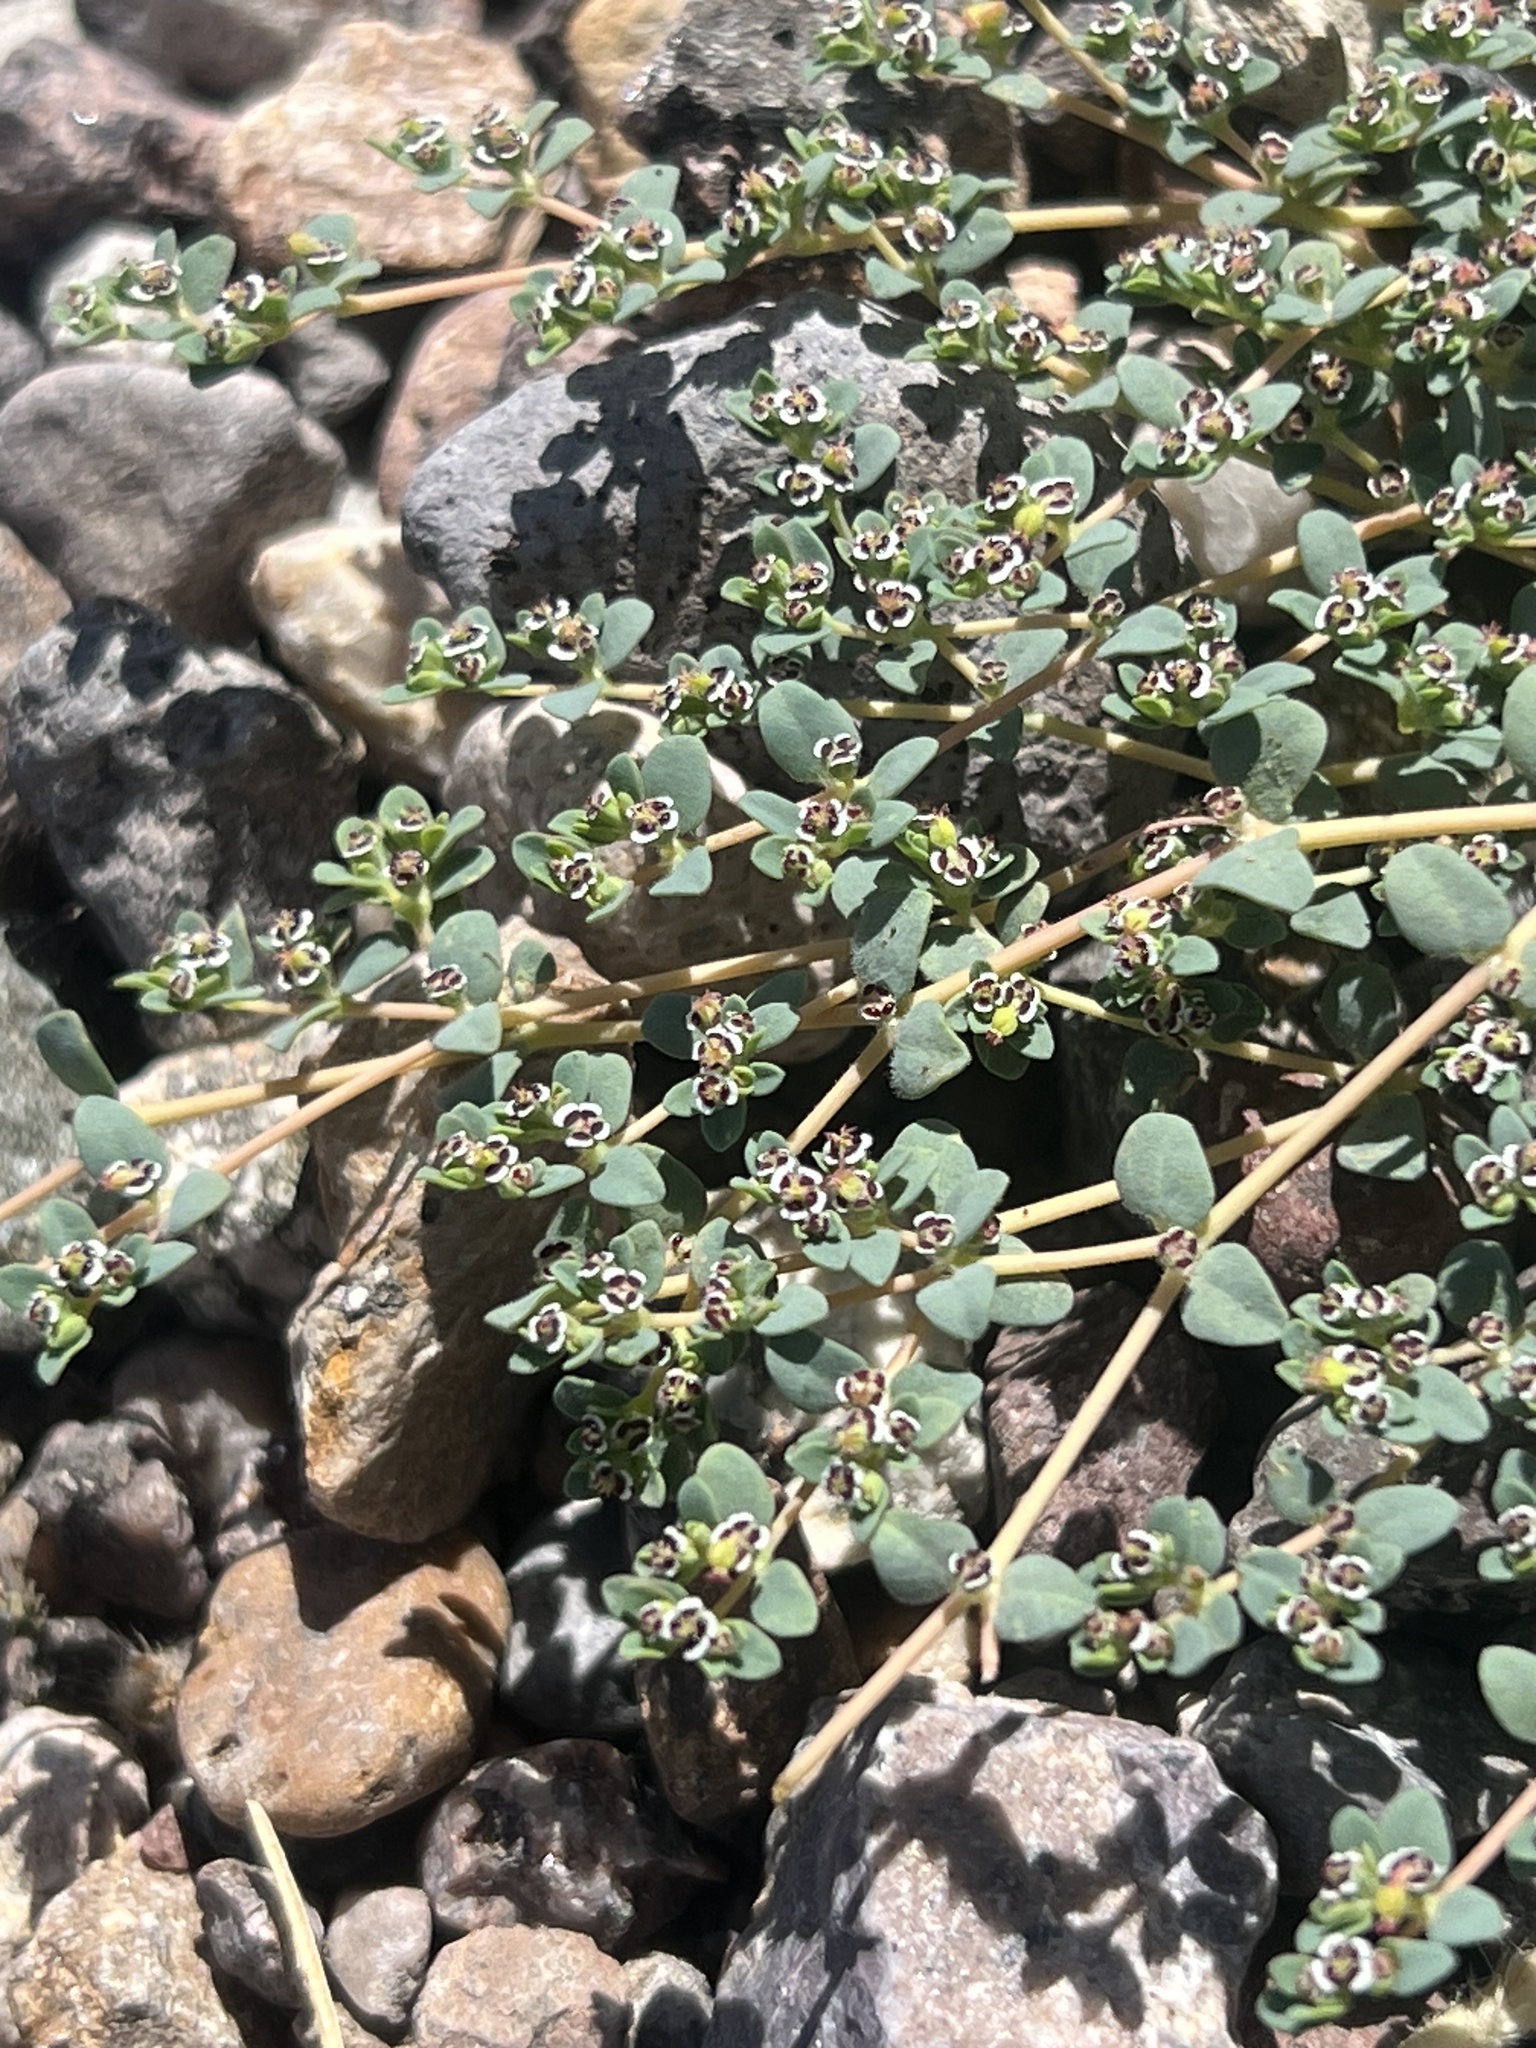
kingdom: Plantae
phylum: Tracheophyta
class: Magnoliopsida
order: Malpighiales
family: Euphorbiaceae
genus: Euphorbia
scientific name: Euphorbia polycarpa
